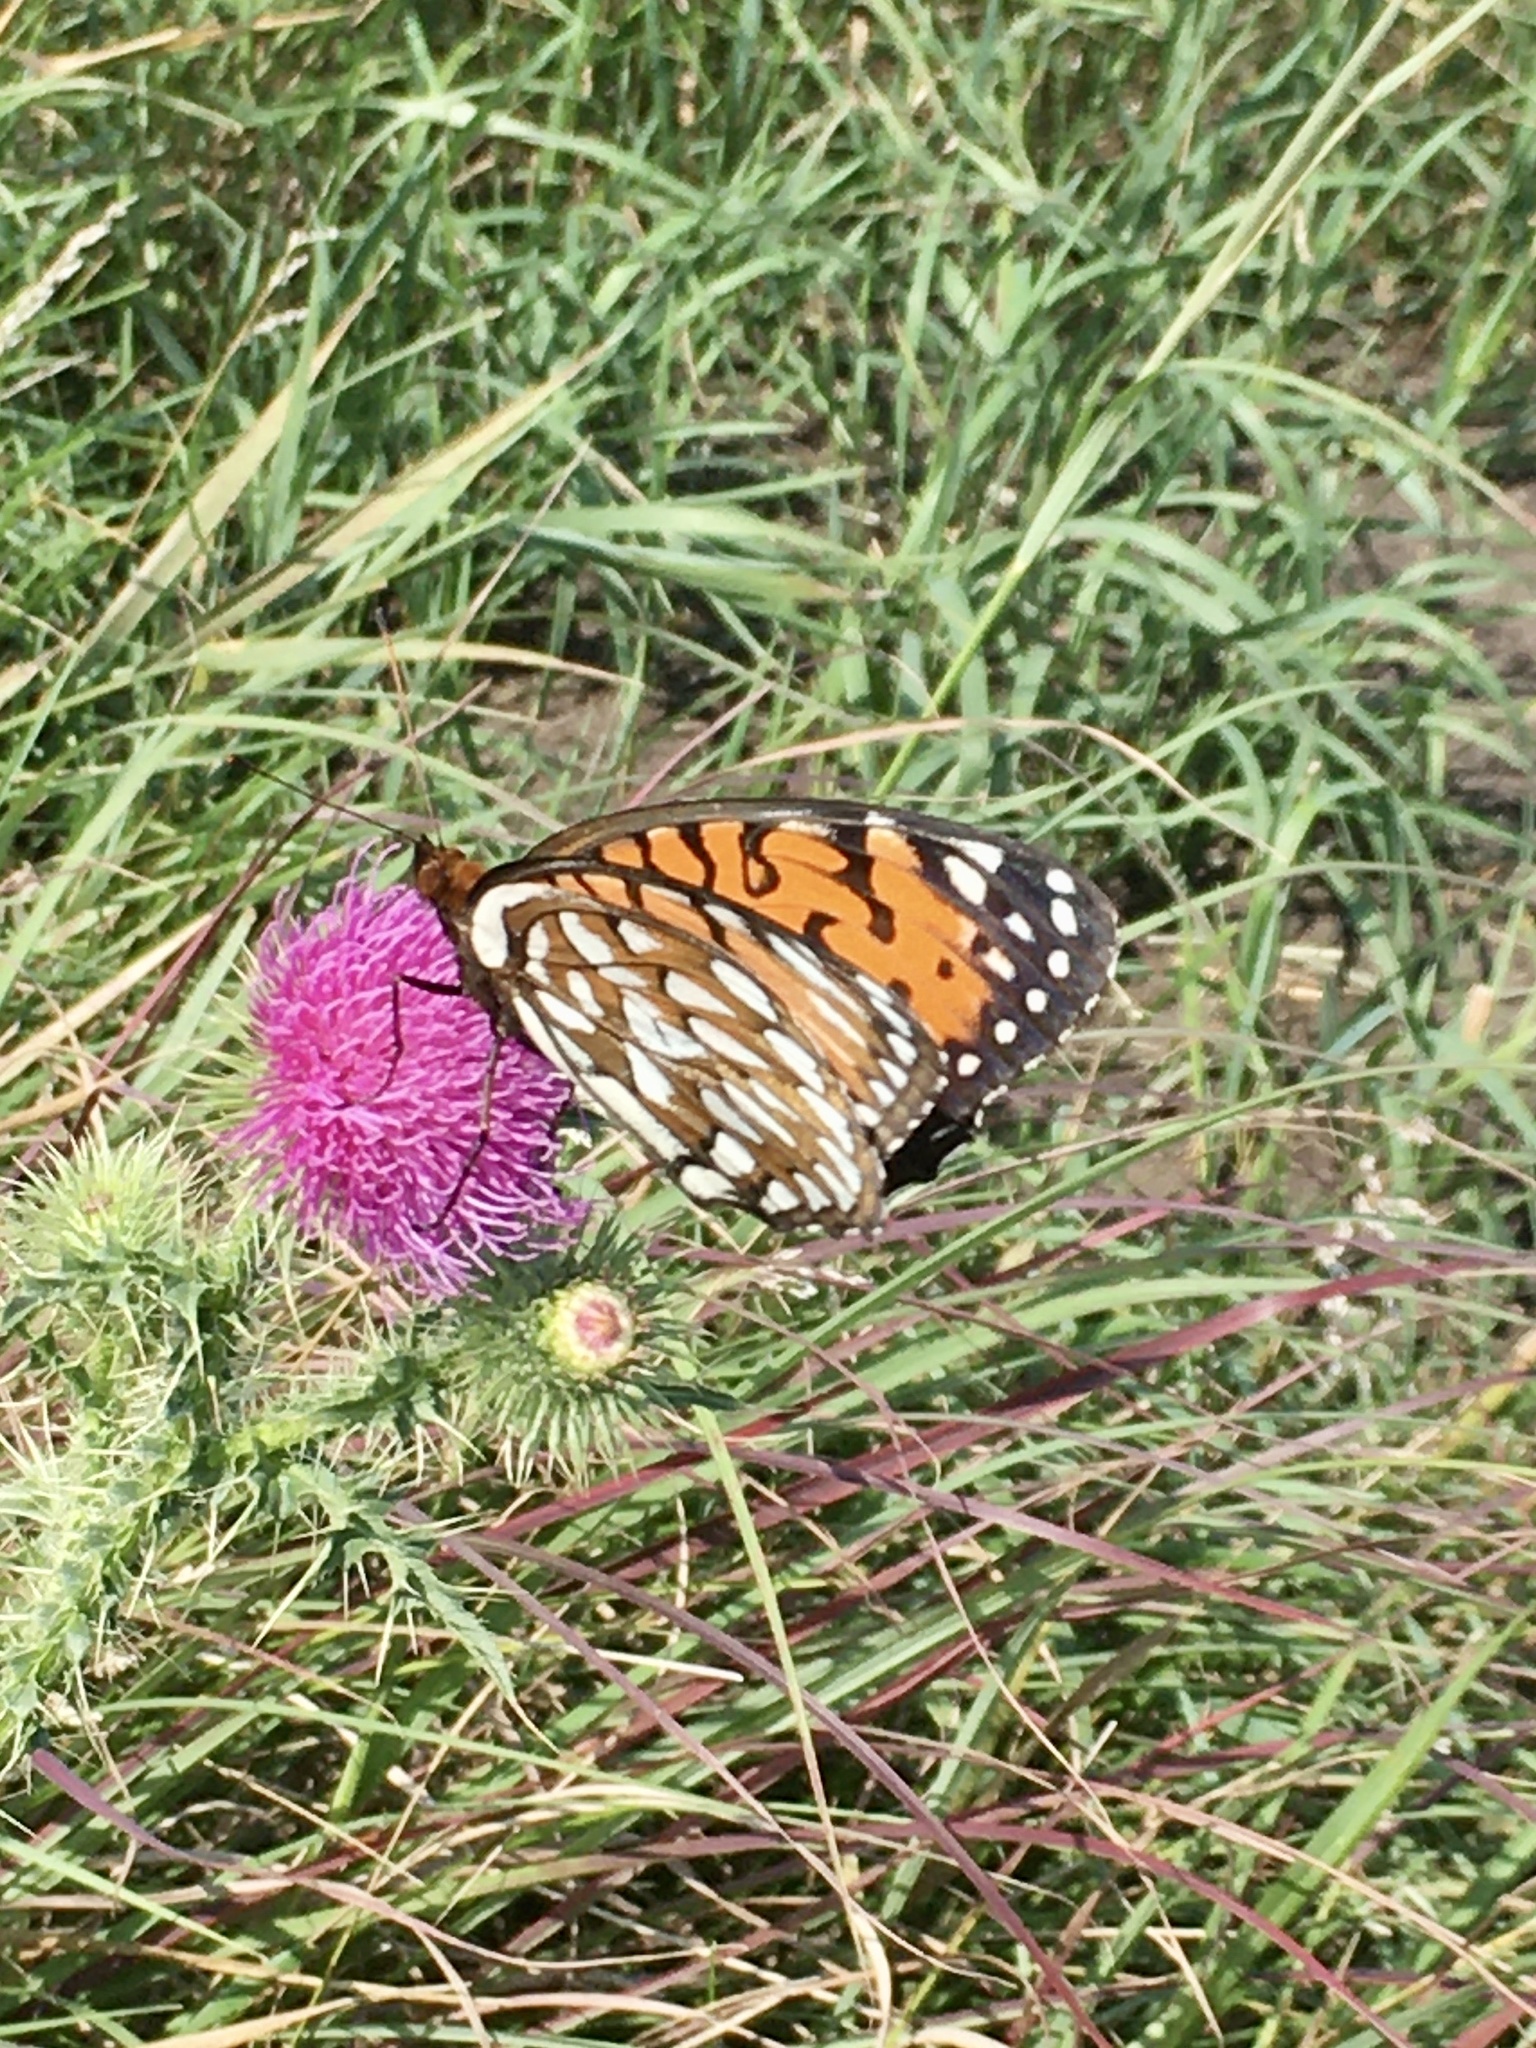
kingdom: Animalia
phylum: Arthropoda
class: Insecta
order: Lepidoptera
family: Nymphalidae
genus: Speyeria
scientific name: Speyeria idalia
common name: Regal fritillary
